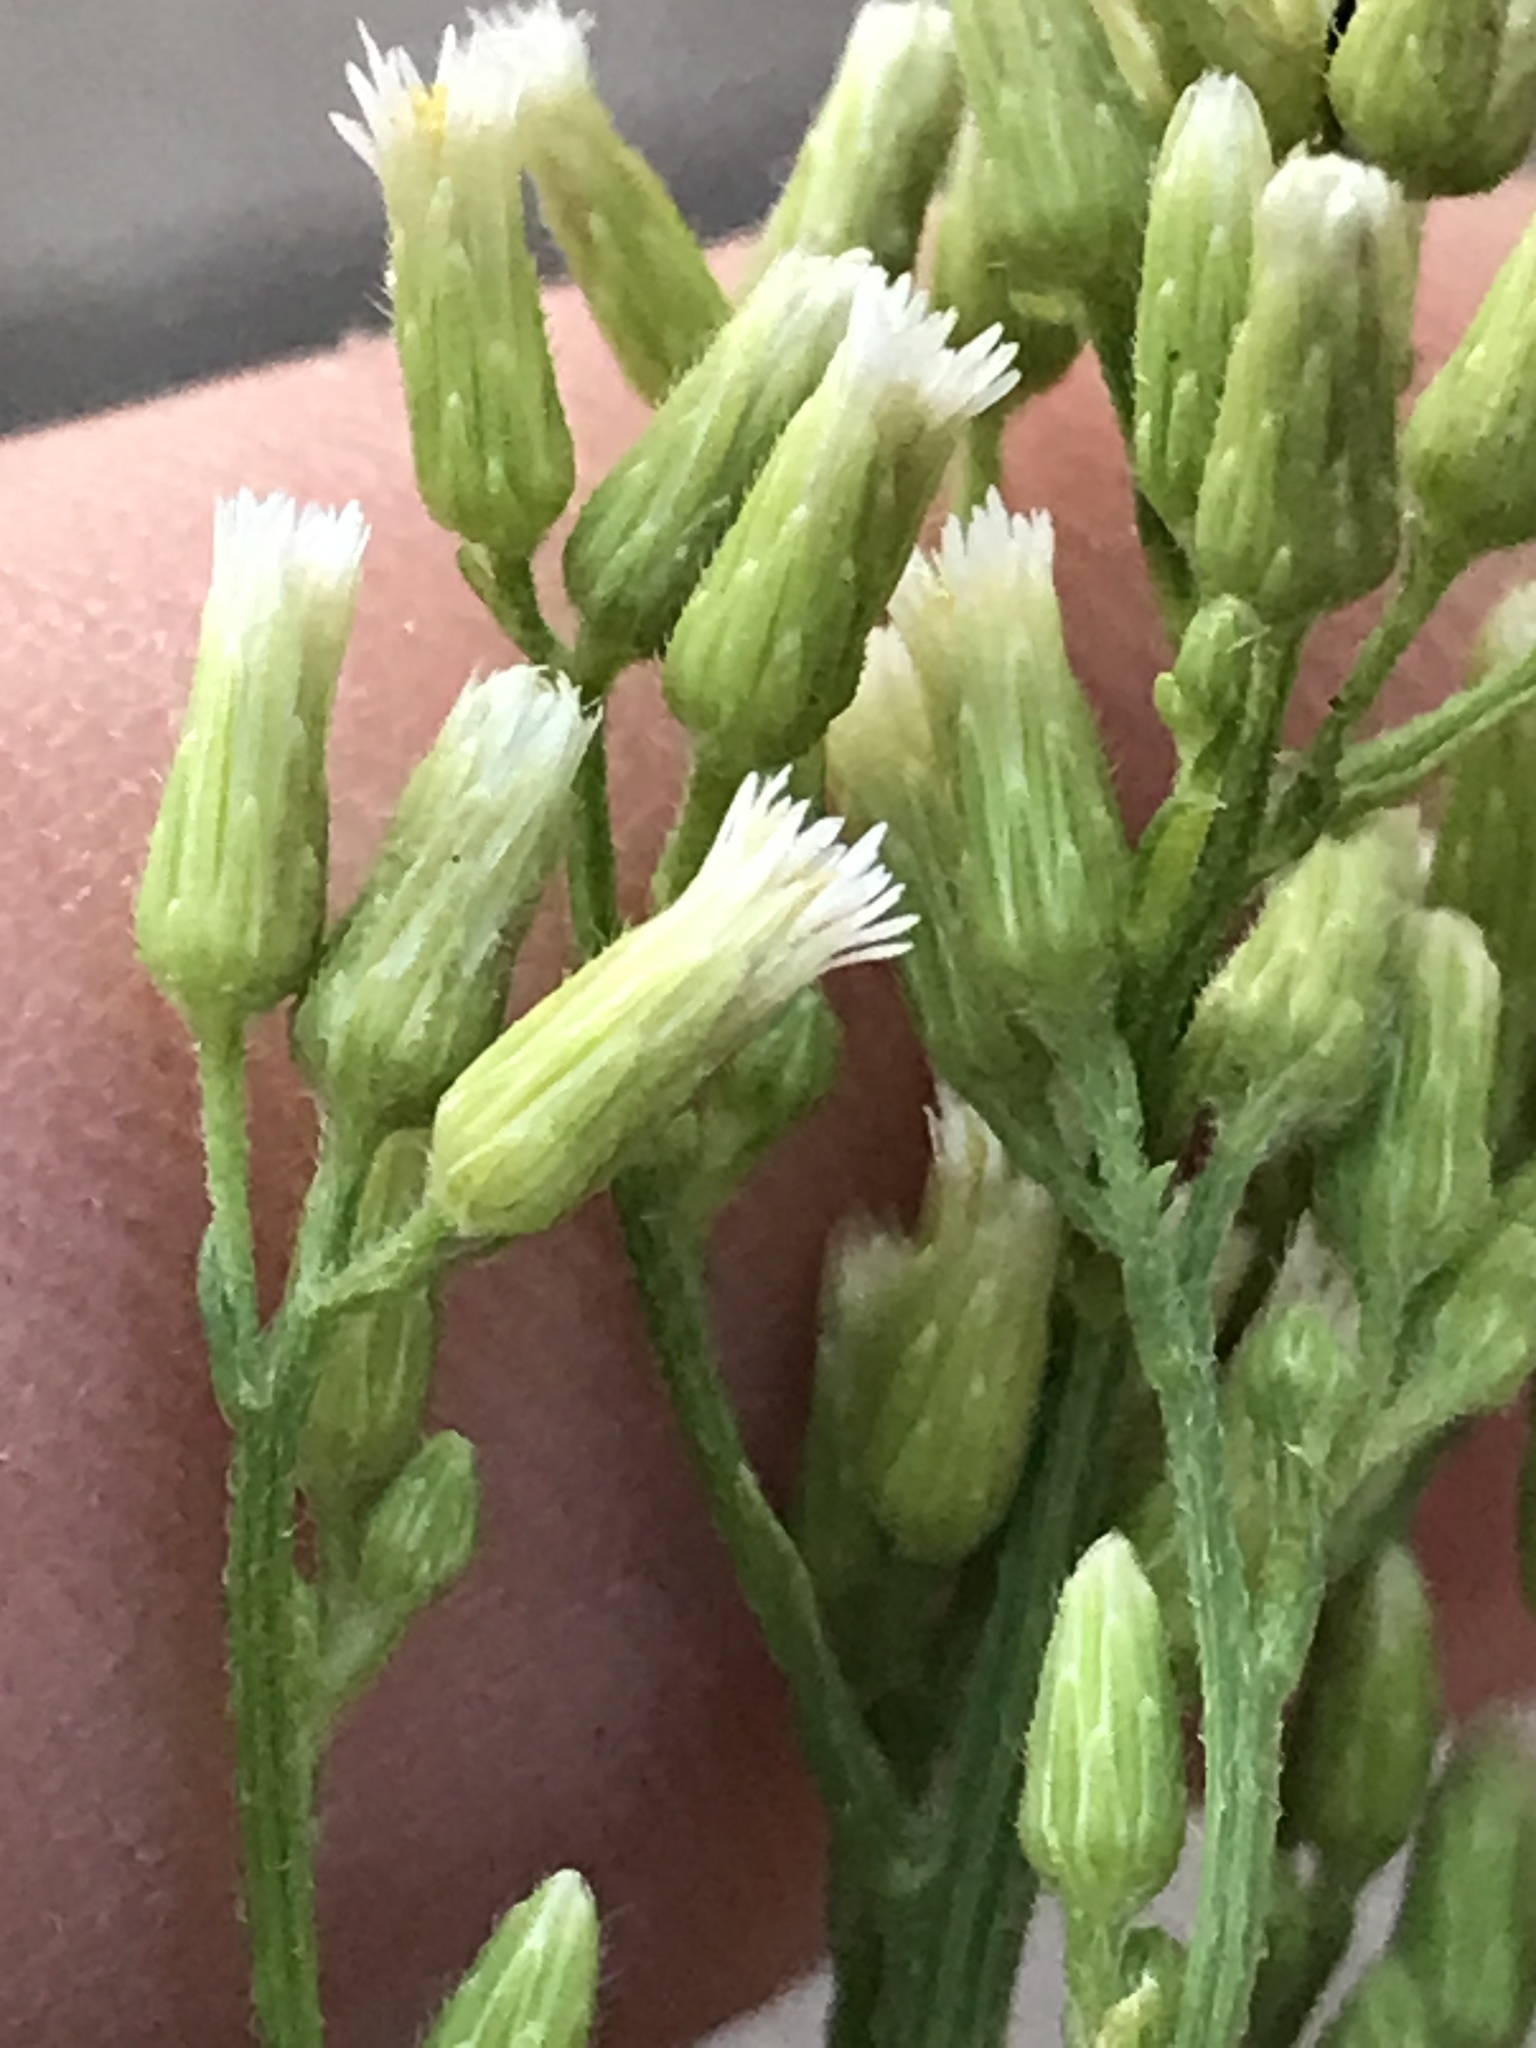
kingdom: Plantae
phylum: Tracheophyta
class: Magnoliopsida
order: Asterales
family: Asteraceae
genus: Erigeron
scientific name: Erigeron canadensis
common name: Canadian fleabane
